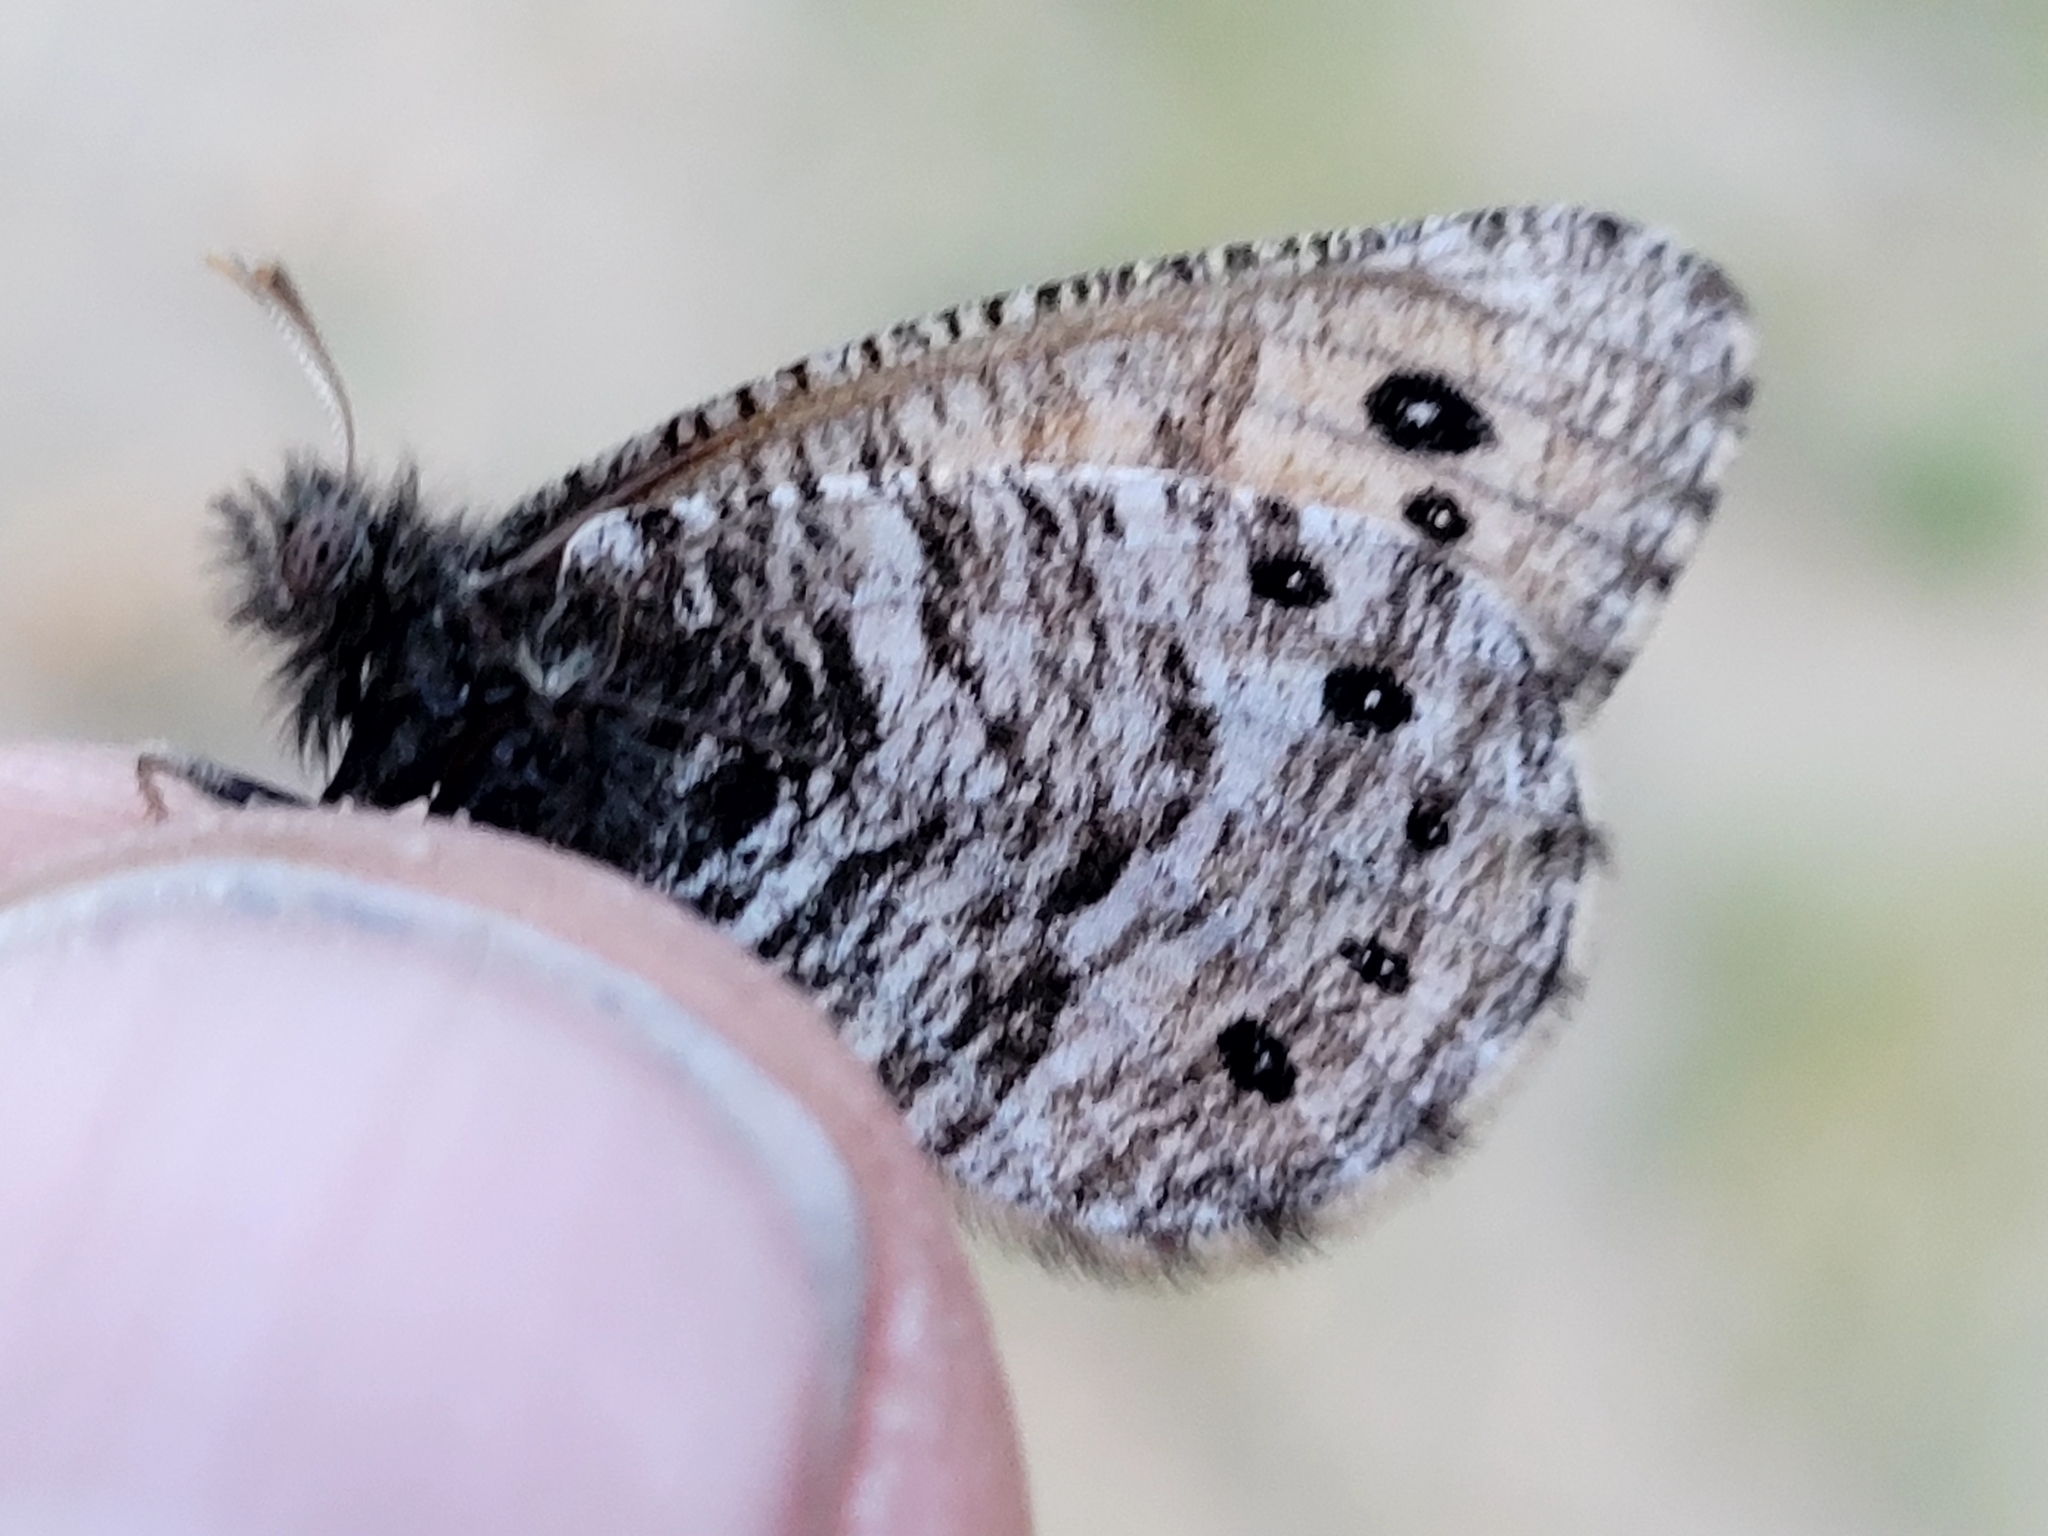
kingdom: Animalia
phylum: Arthropoda
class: Insecta
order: Lepidoptera
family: Nymphalidae
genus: Oeneis
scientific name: Oeneis uhleri
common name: Uhler's arctic
